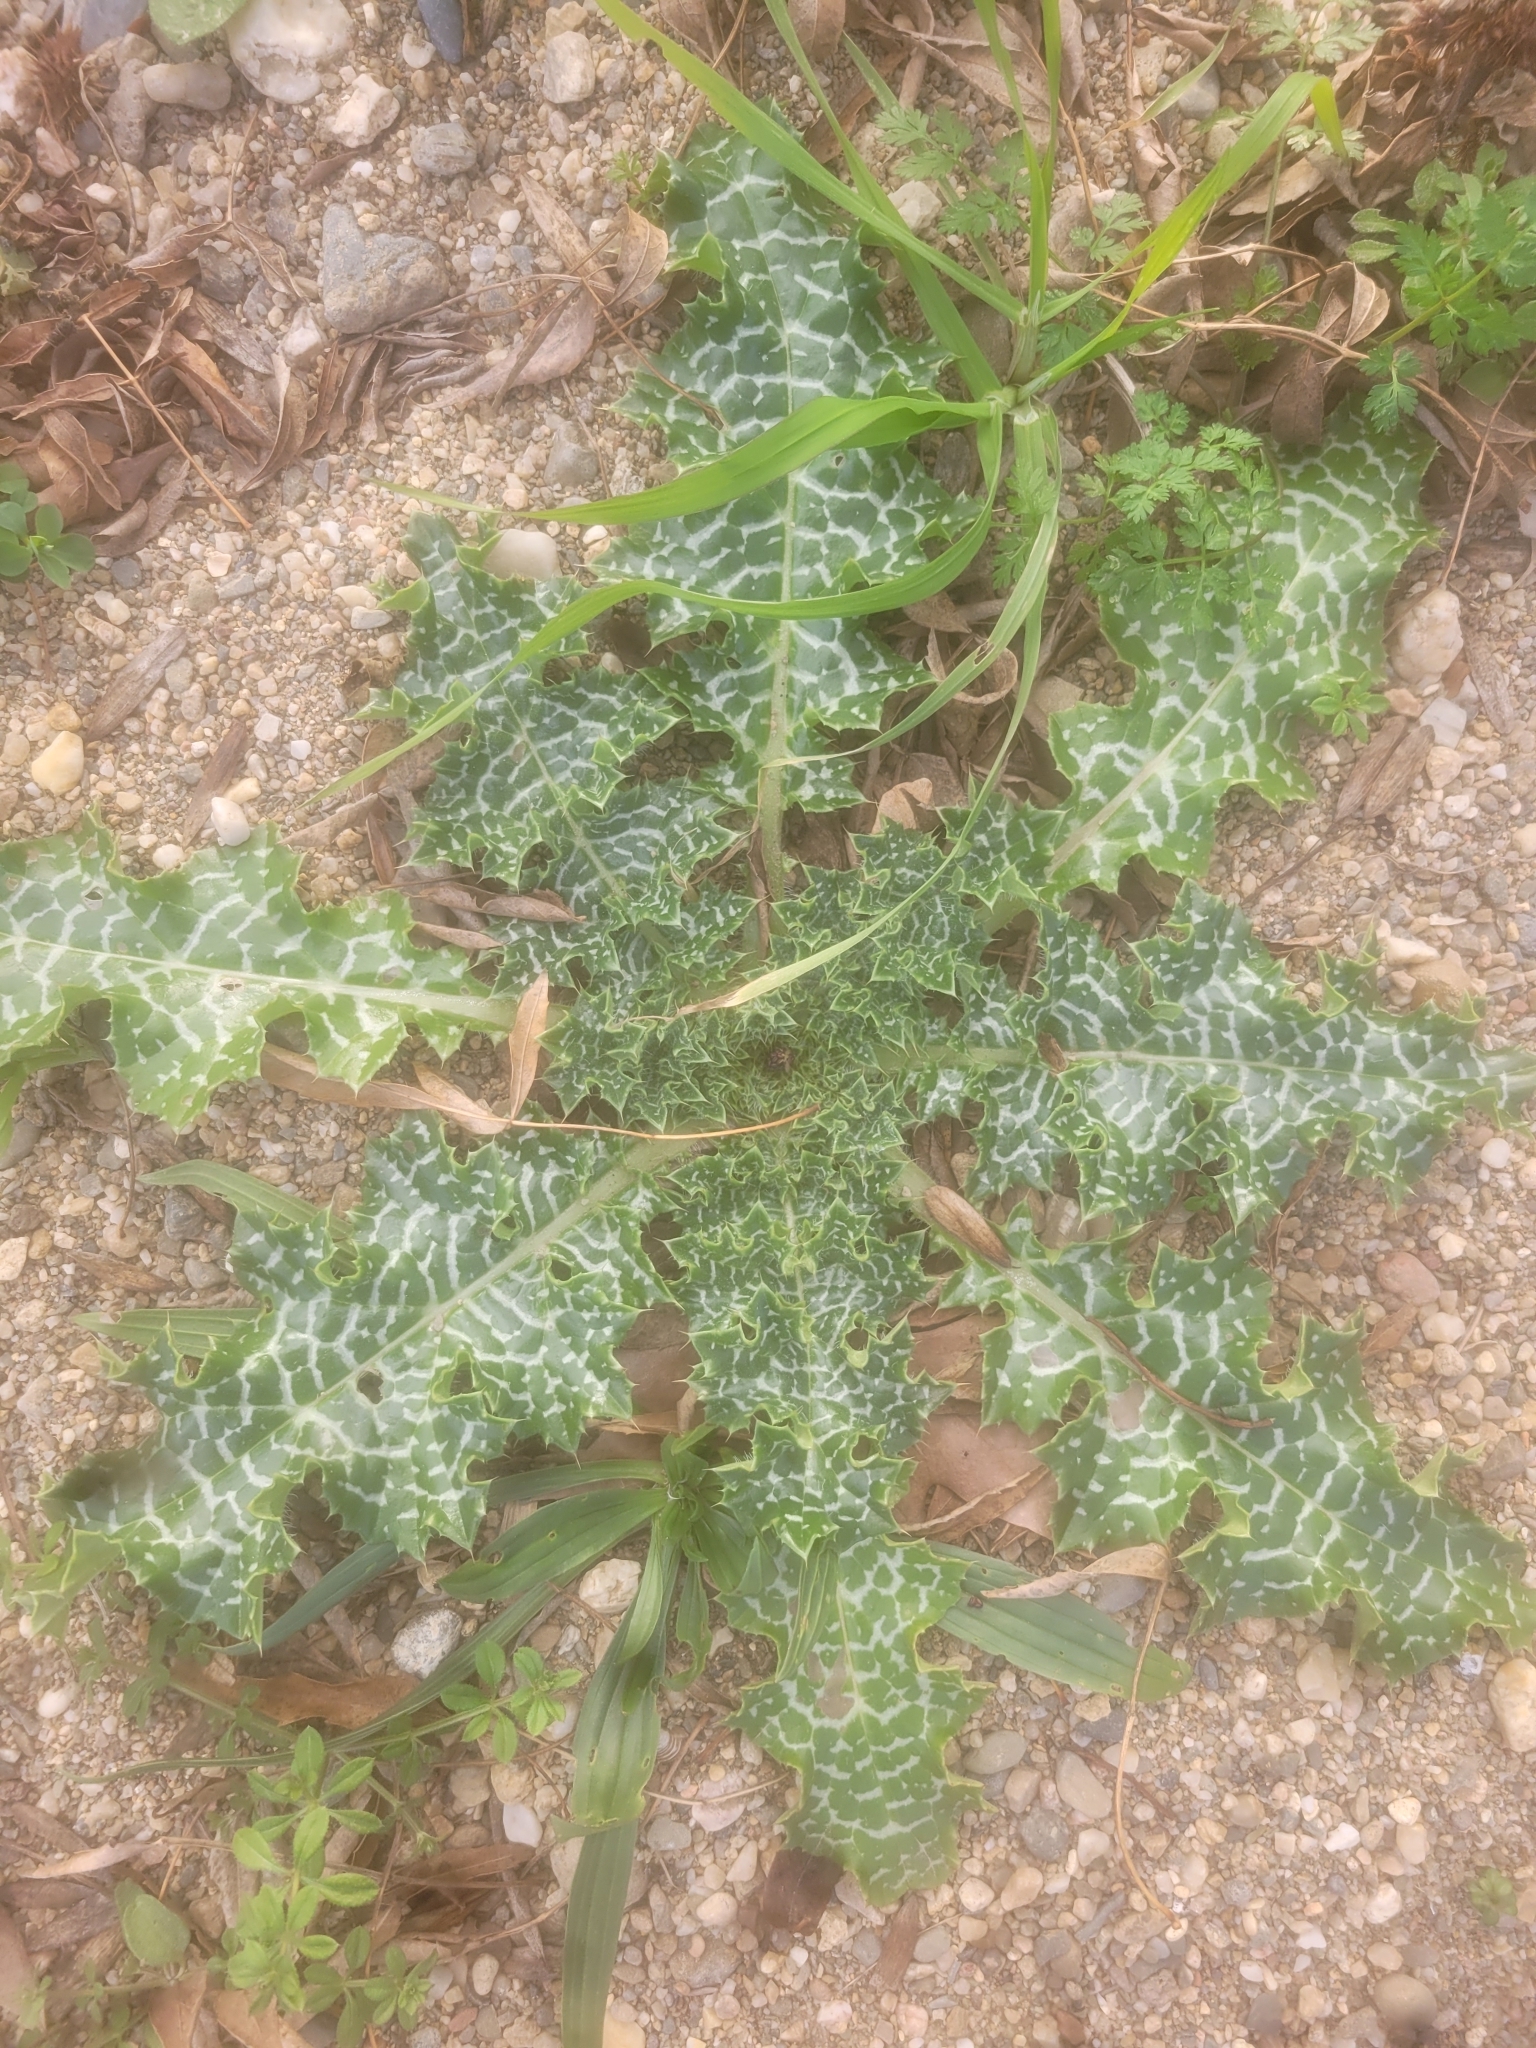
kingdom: Plantae
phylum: Tracheophyta
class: Magnoliopsida
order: Asterales
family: Asteraceae
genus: Silybum
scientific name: Silybum marianum
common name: Milk thistle
